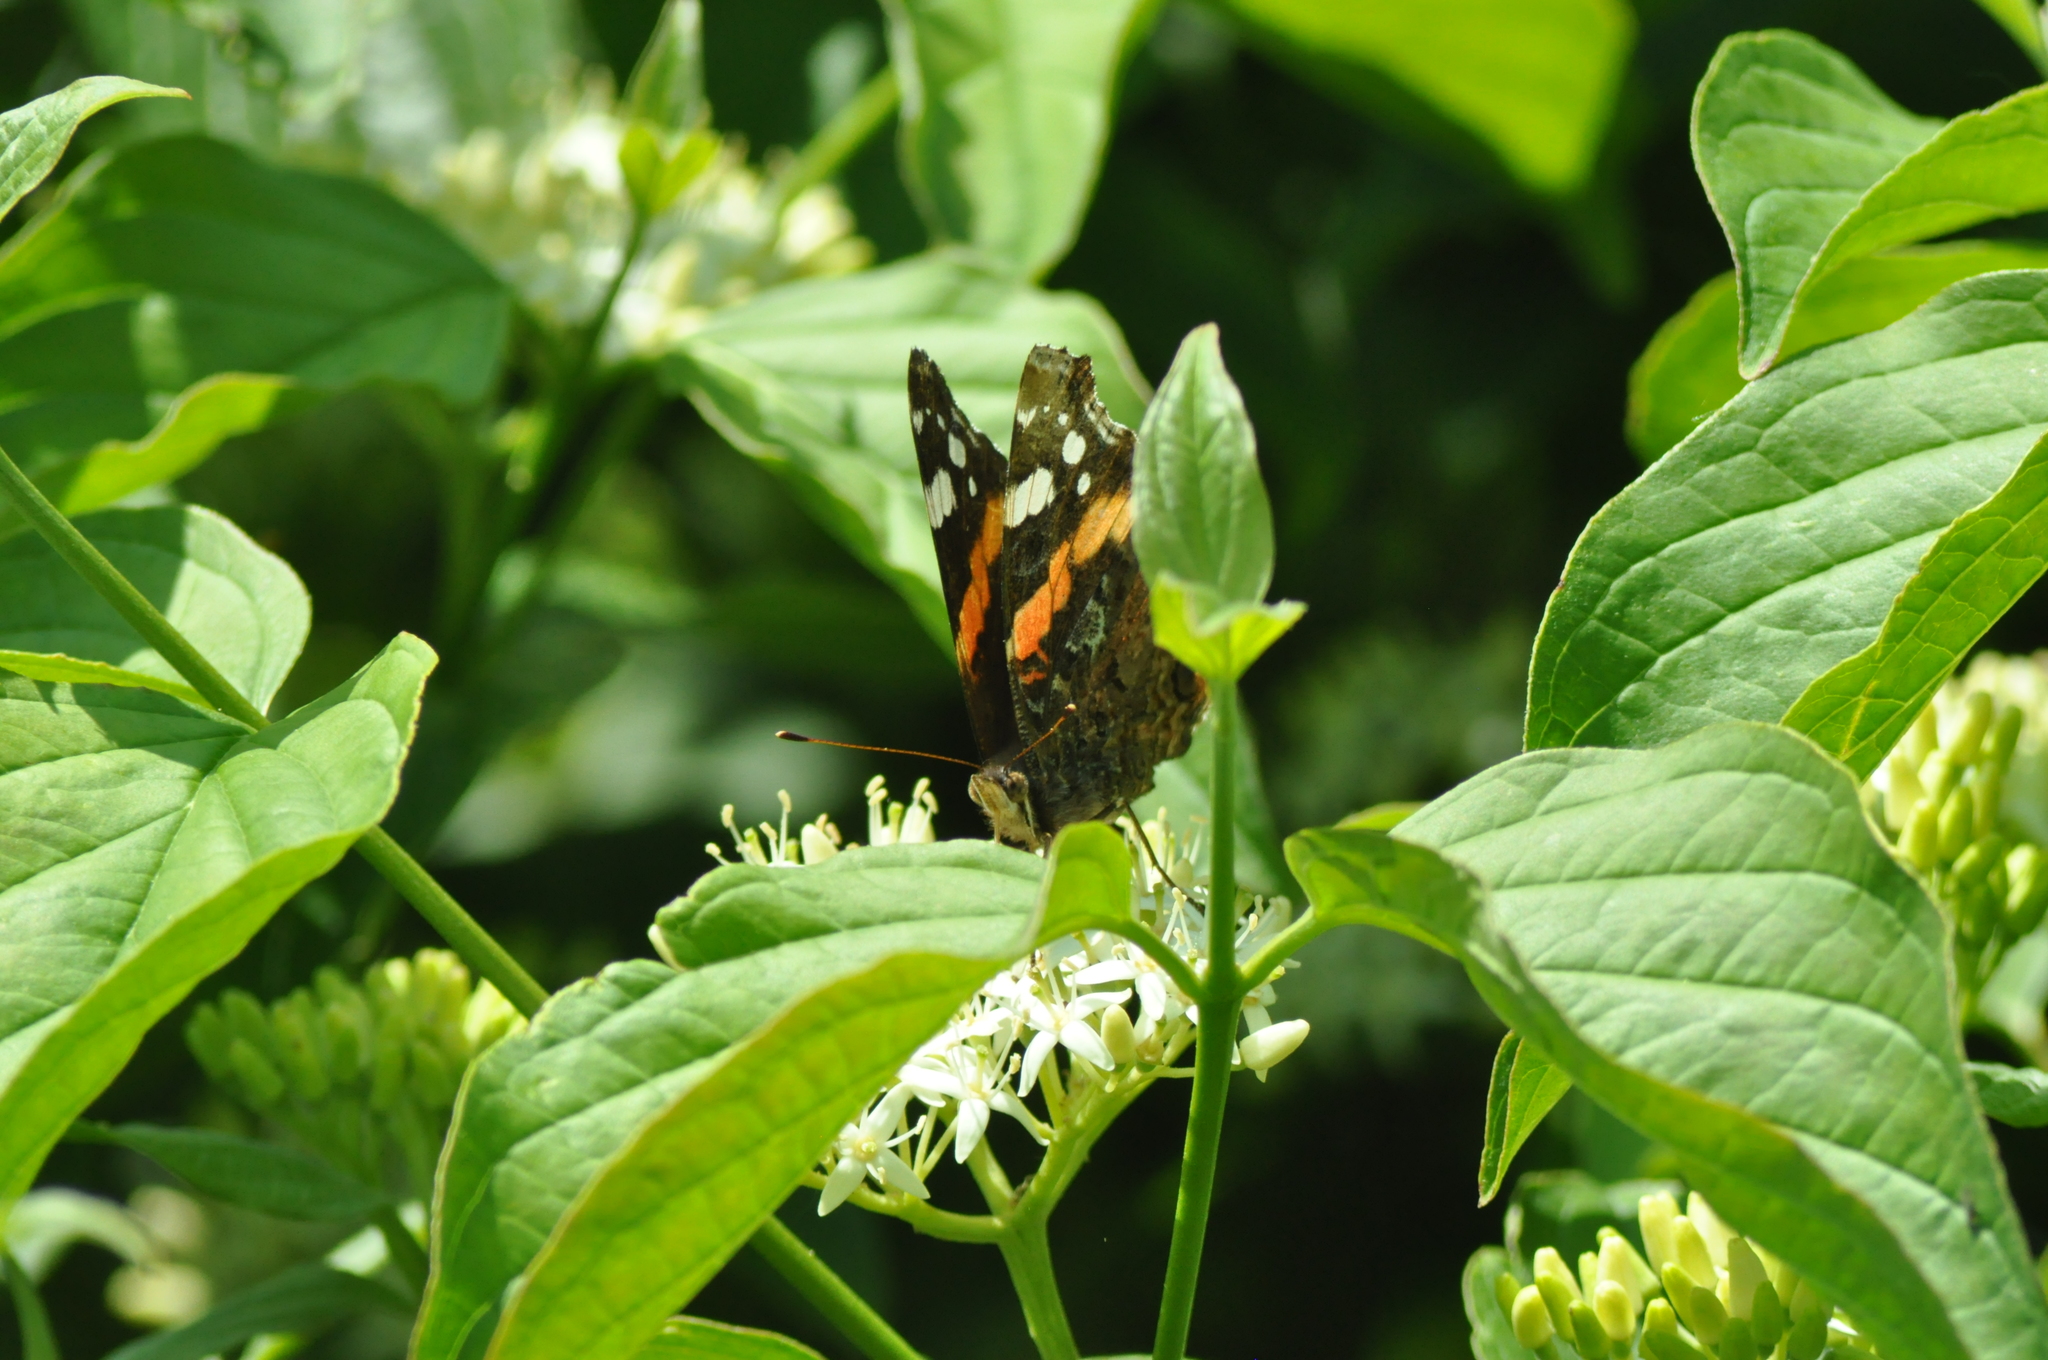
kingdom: Animalia
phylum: Arthropoda
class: Insecta
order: Lepidoptera
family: Nymphalidae
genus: Vanessa
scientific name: Vanessa atalanta
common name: Red admiral
